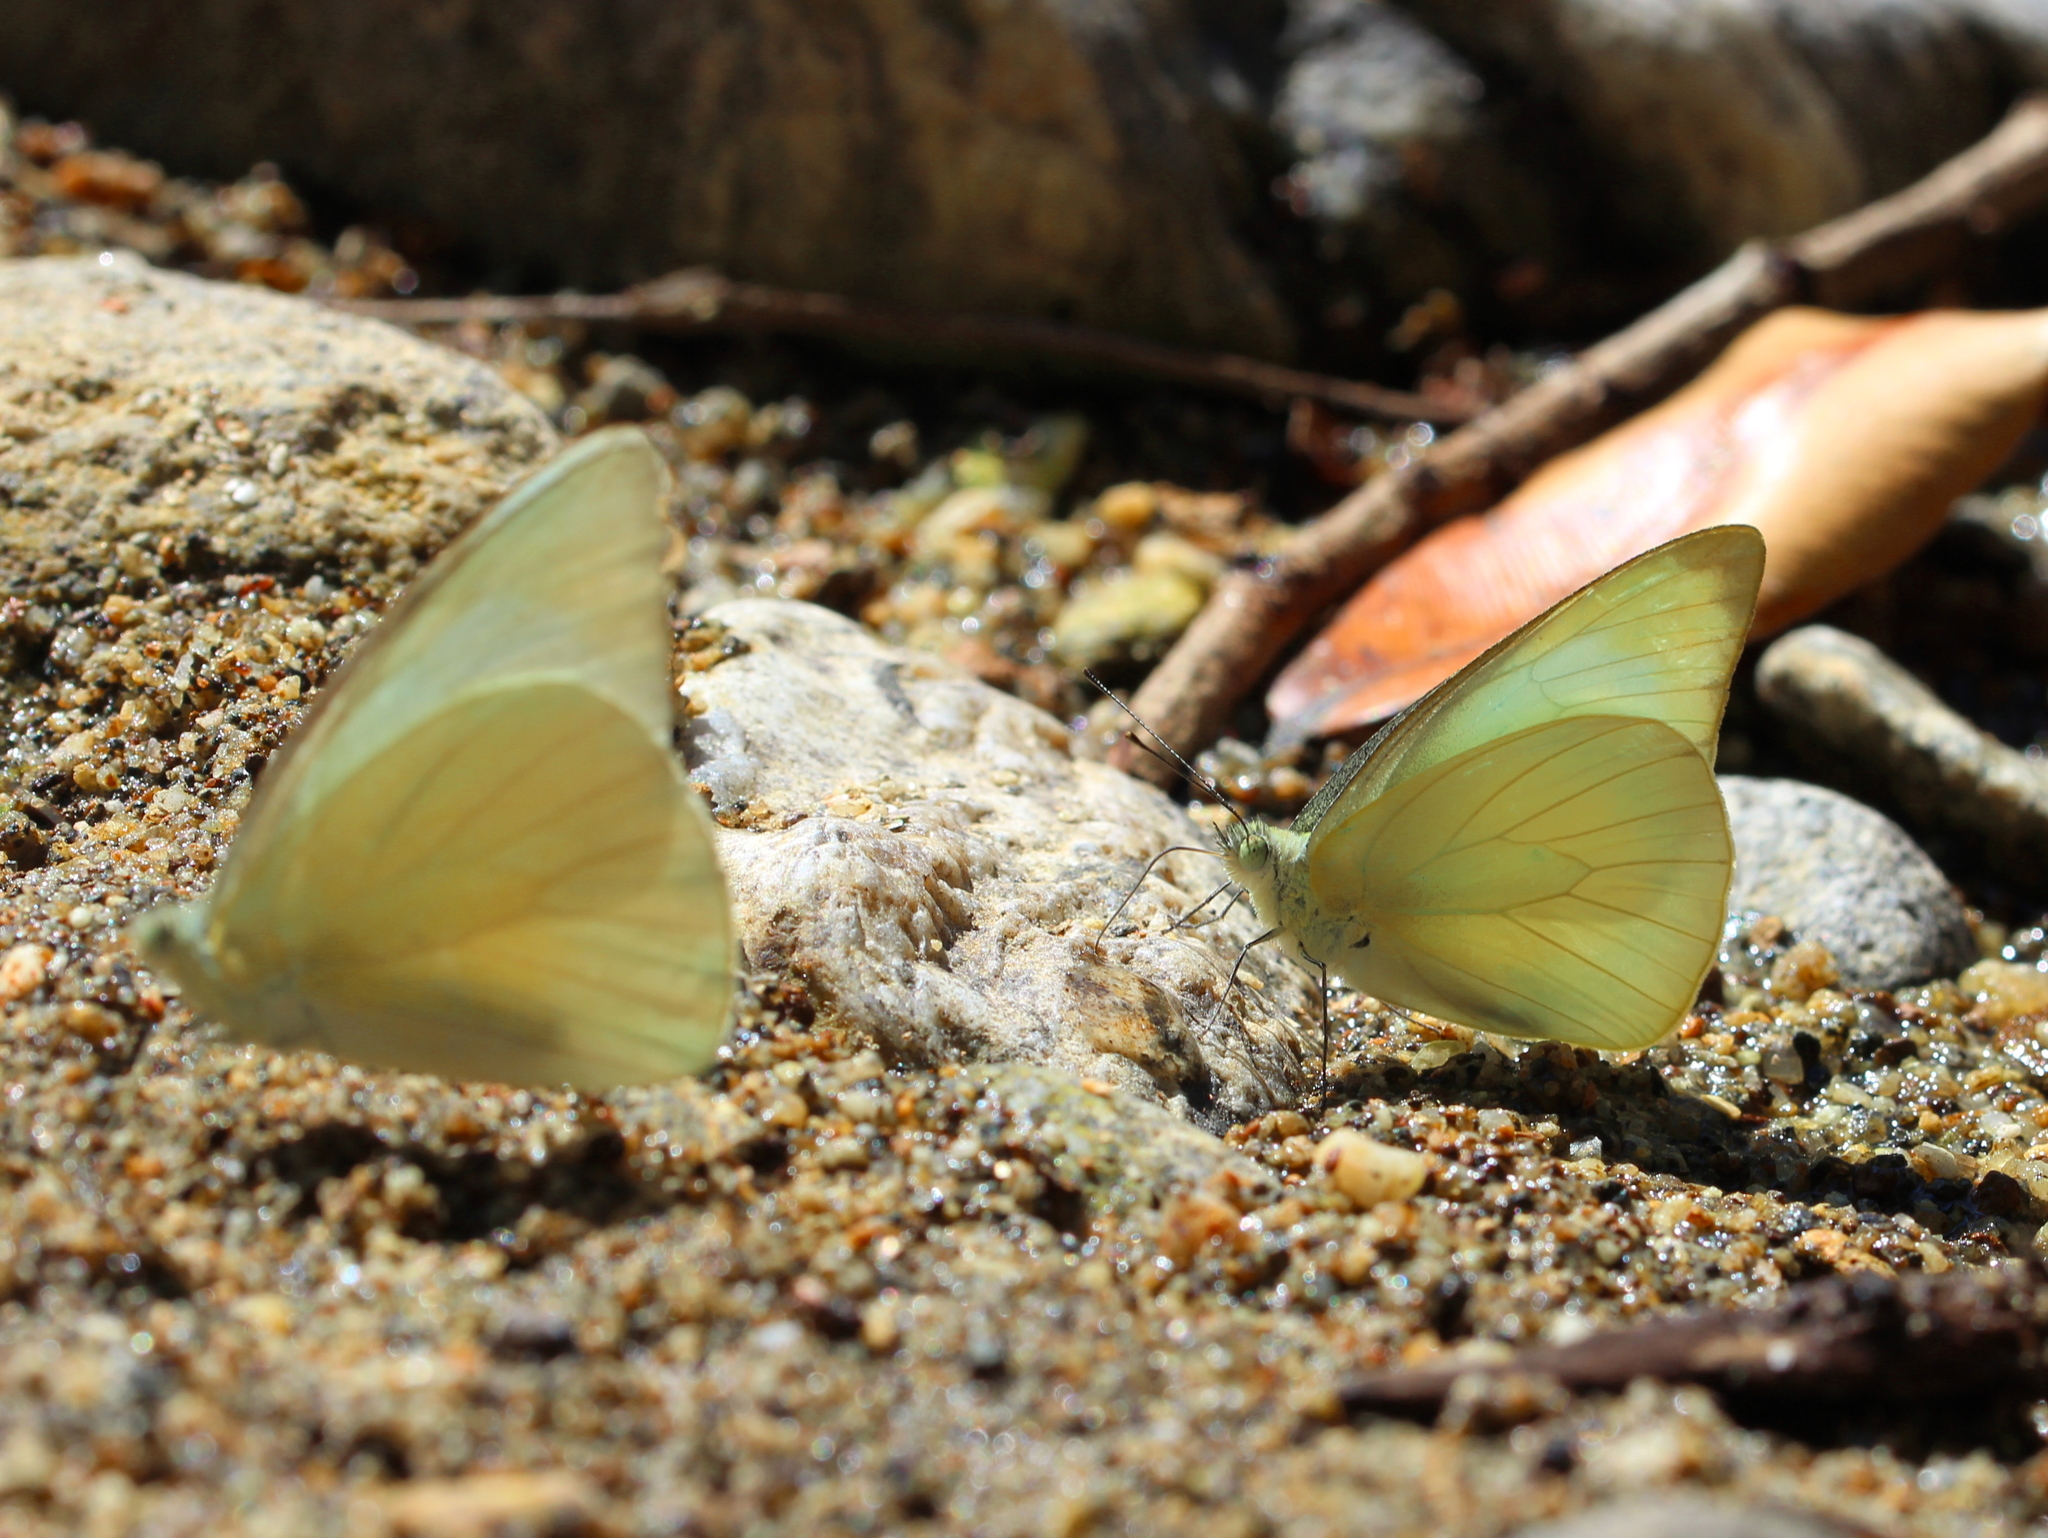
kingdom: Animalia
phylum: Arthropoda
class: Insecta
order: Lepidoptera
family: Pieridae
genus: Appias
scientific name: Appias albina
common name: Common albatross
